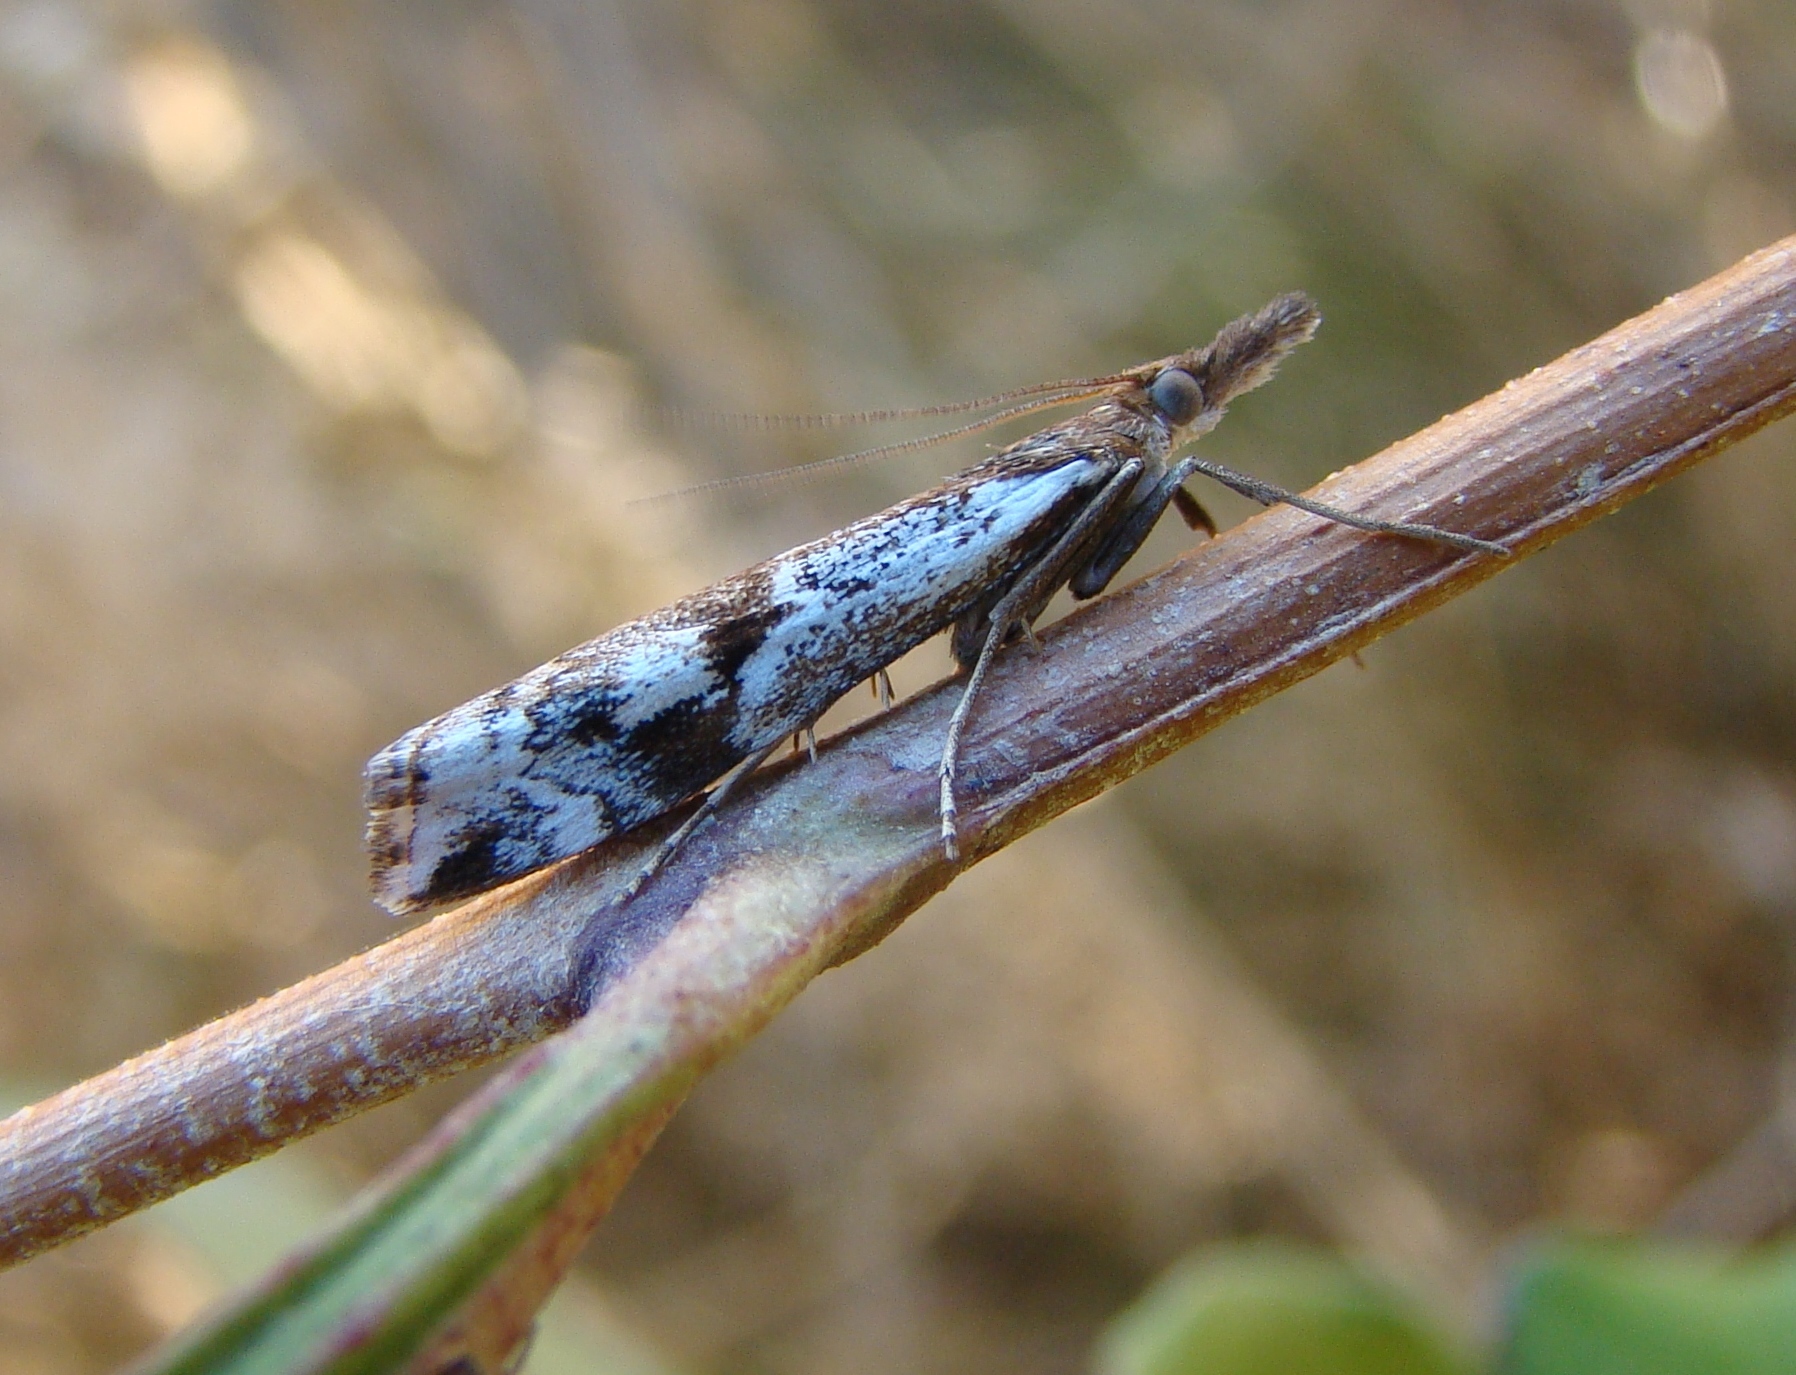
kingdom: Animalia
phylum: Arthropoda
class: Insecta
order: Lepidoptera
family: Crambidae
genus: Orocrambus
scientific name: Orocrambus vulgaris
